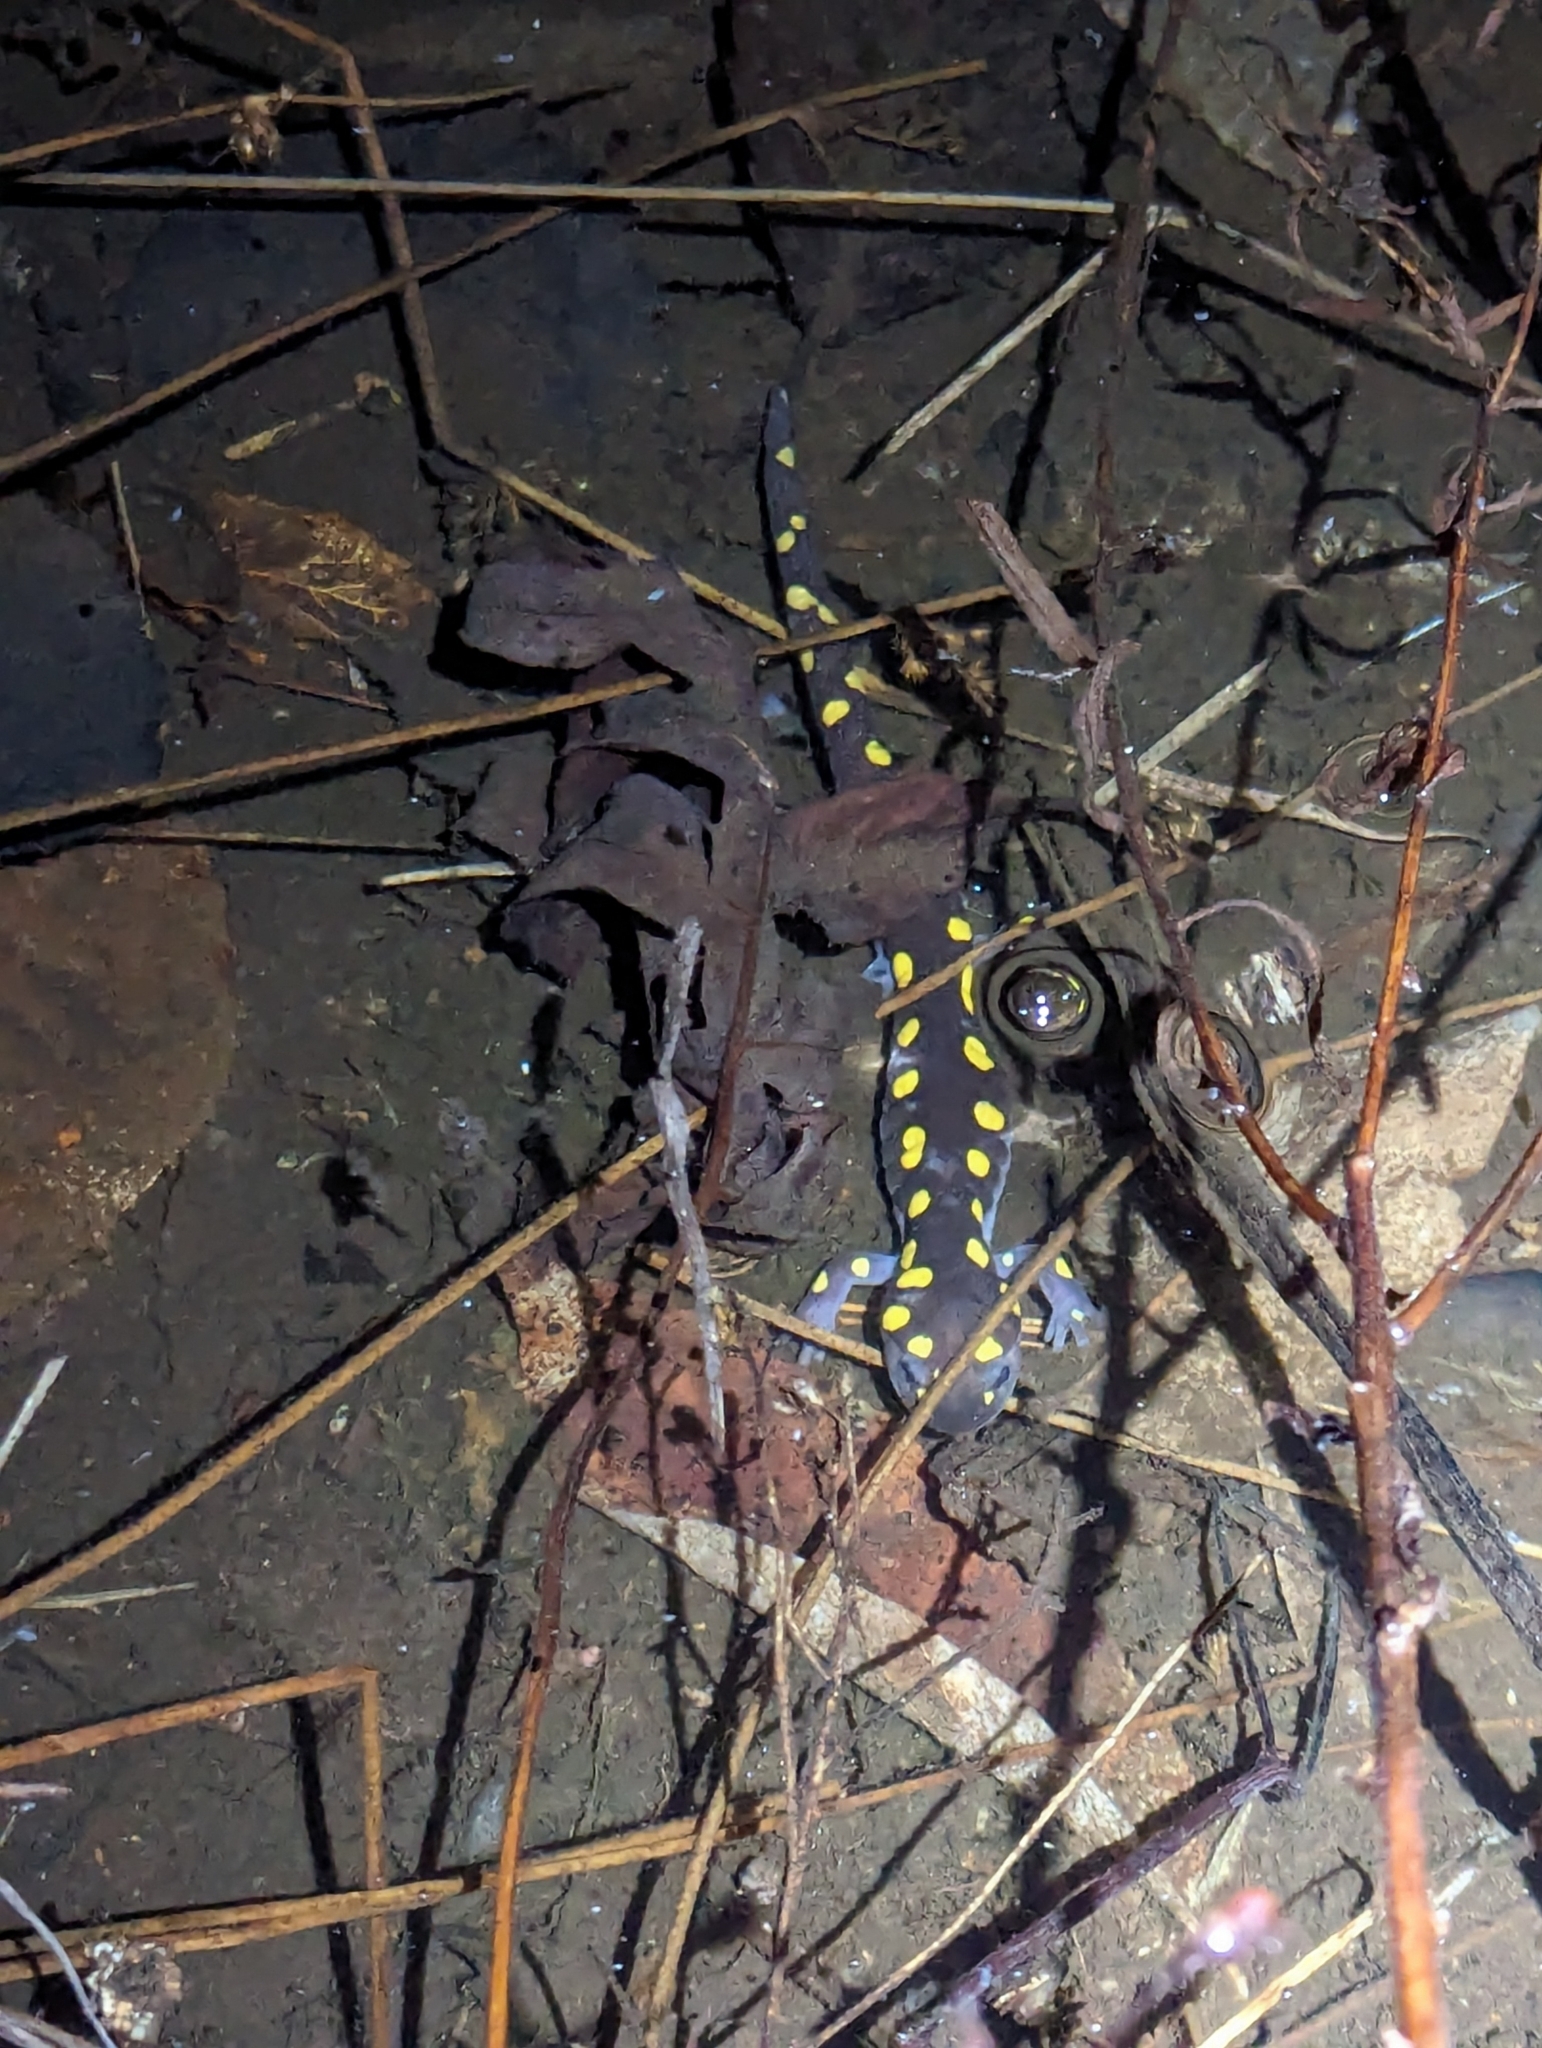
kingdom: Animalia
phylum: Chordata
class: Amphibia
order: Caudata
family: Ambystomatidae
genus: Ambystoma
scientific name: Ambystoma maculatum
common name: Spotted salamander
